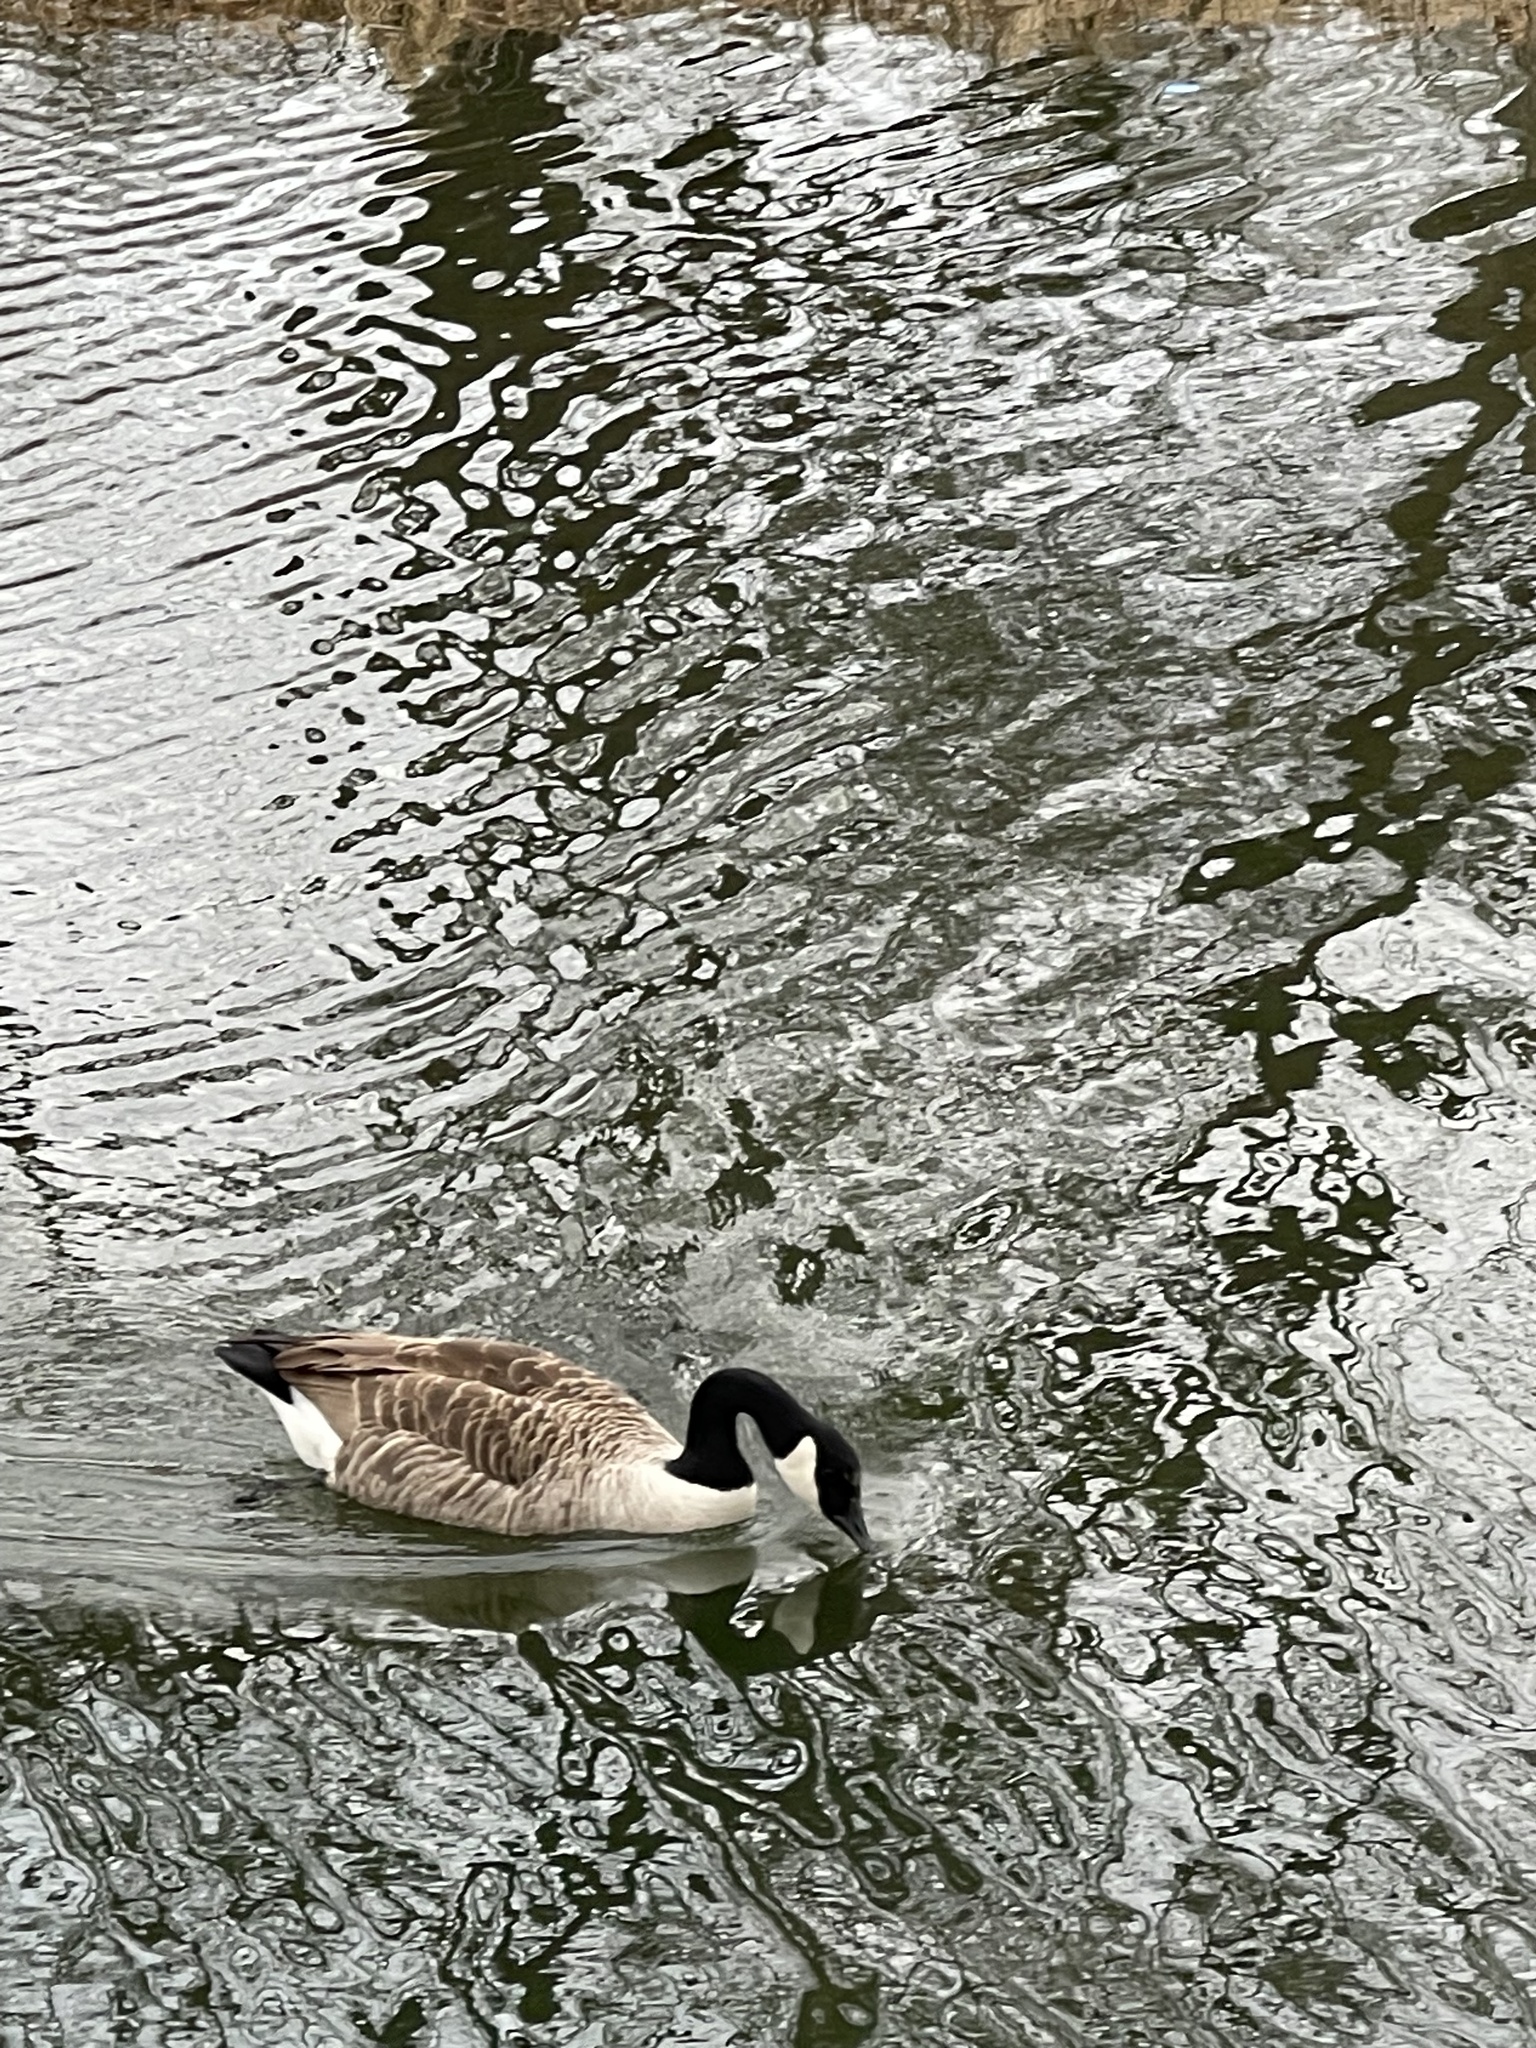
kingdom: Animalia
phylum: Chordata
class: Aves
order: Anseriformes
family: Anatidae
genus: Branta
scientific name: Branta canadensis
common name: Canada goose
